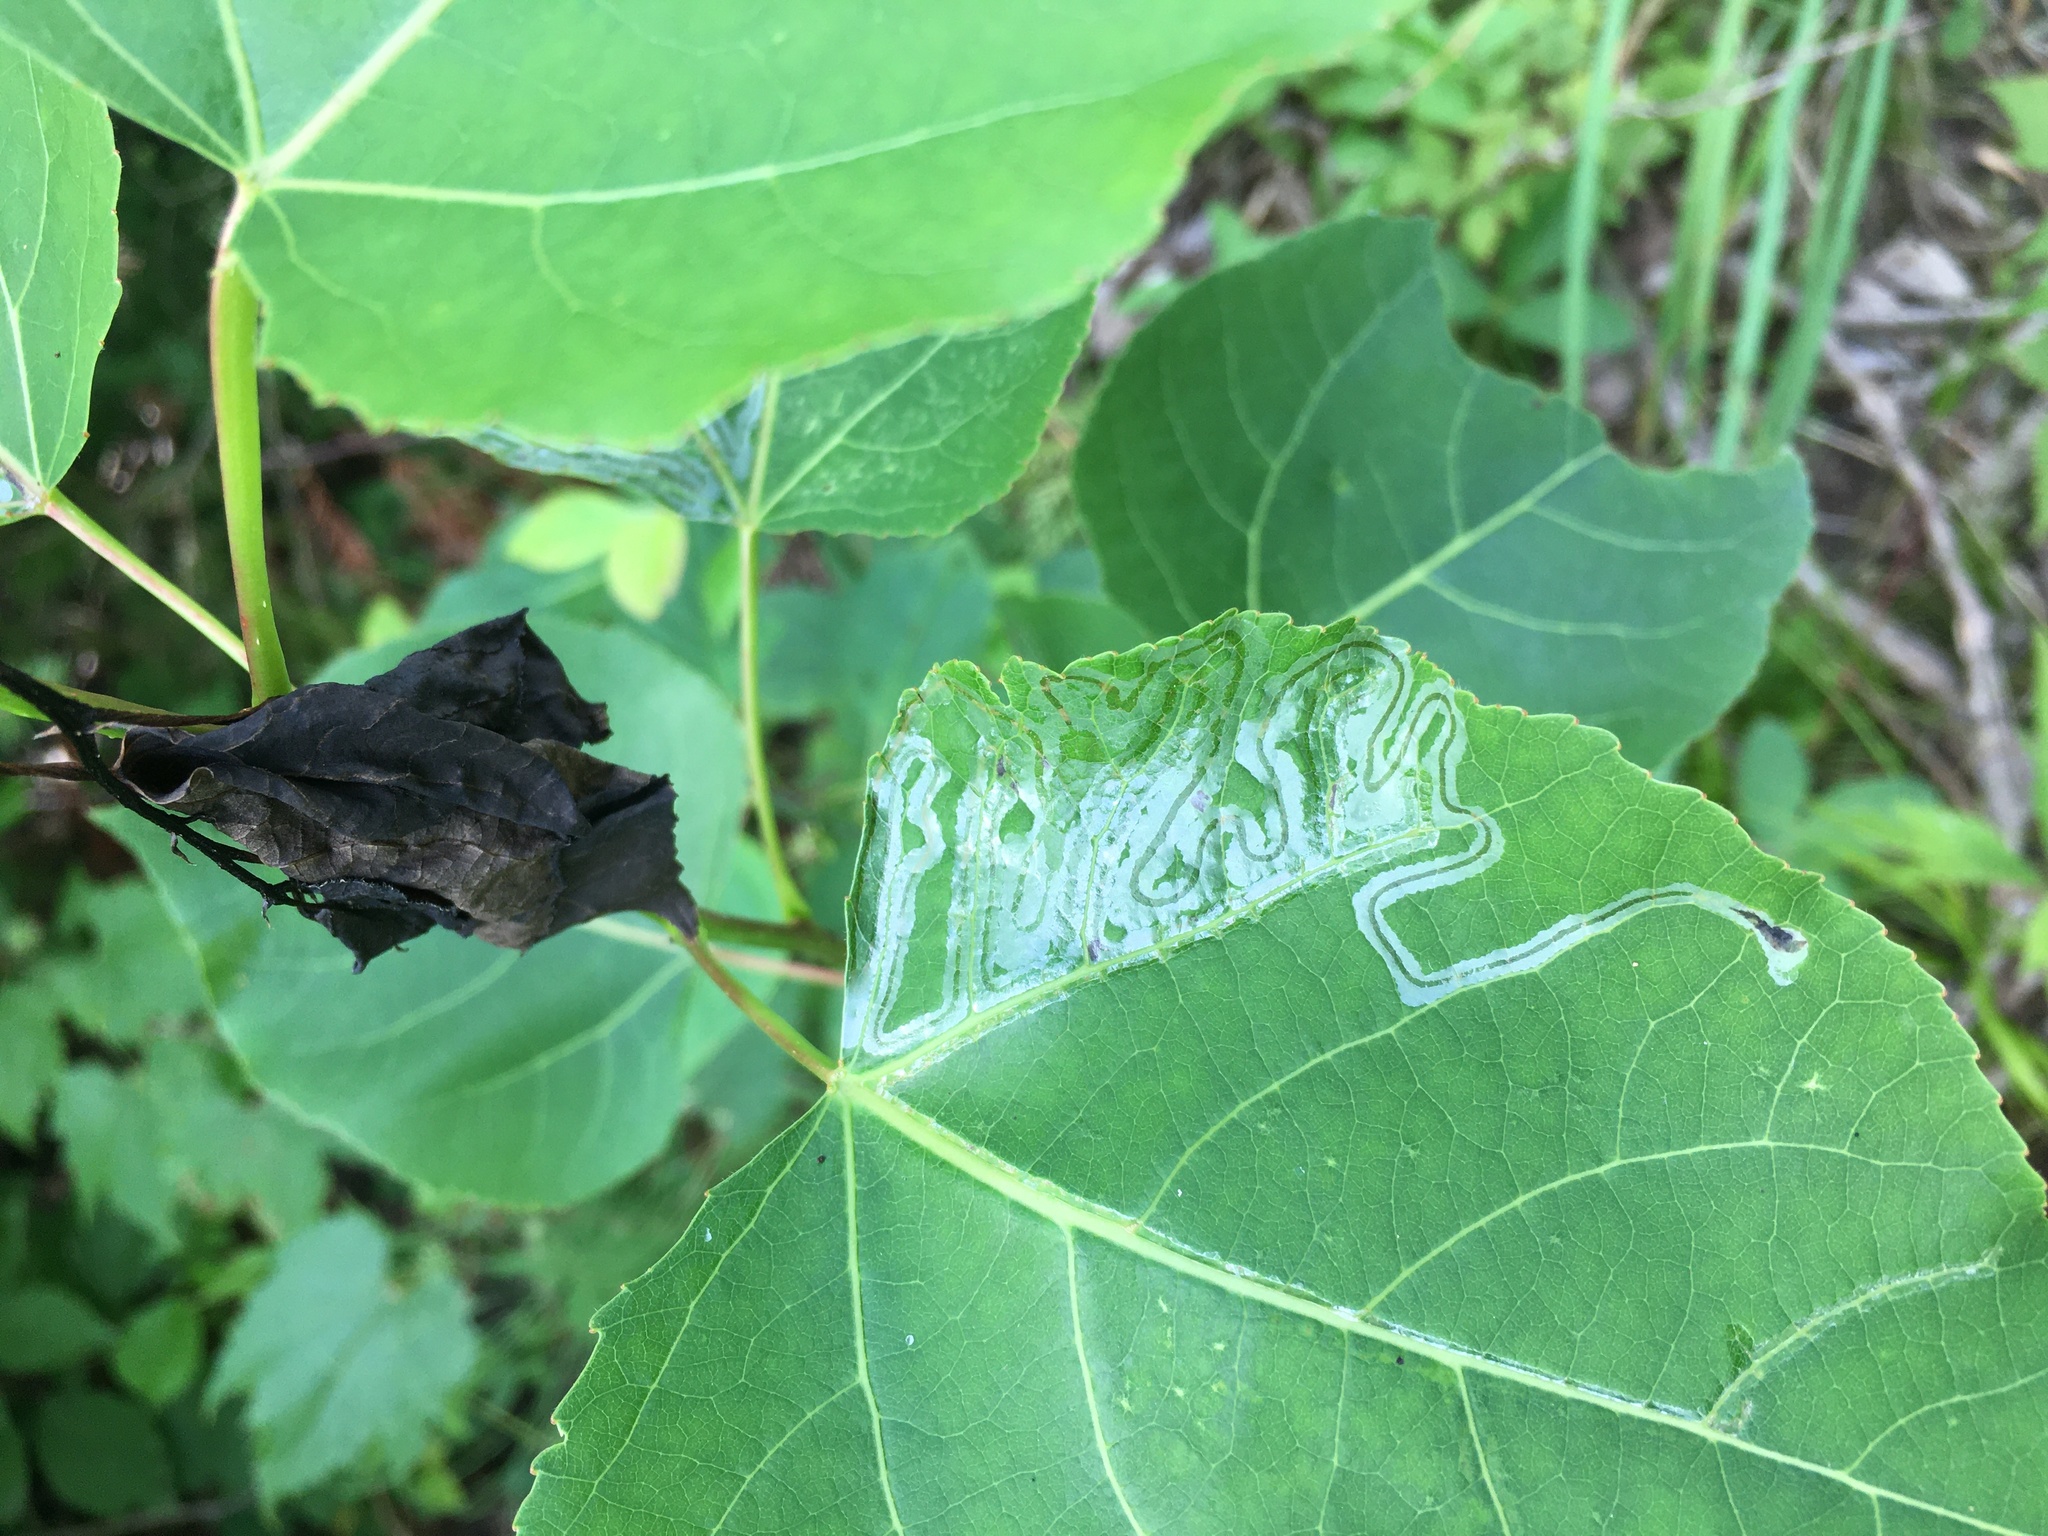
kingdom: Animalia
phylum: Arthropoda
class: Insecta
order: Lepidoptera
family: Gracillariidae
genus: Phyllocnistis
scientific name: Phyllocnistis populiella
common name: Aspen serpentine leafminer moth
